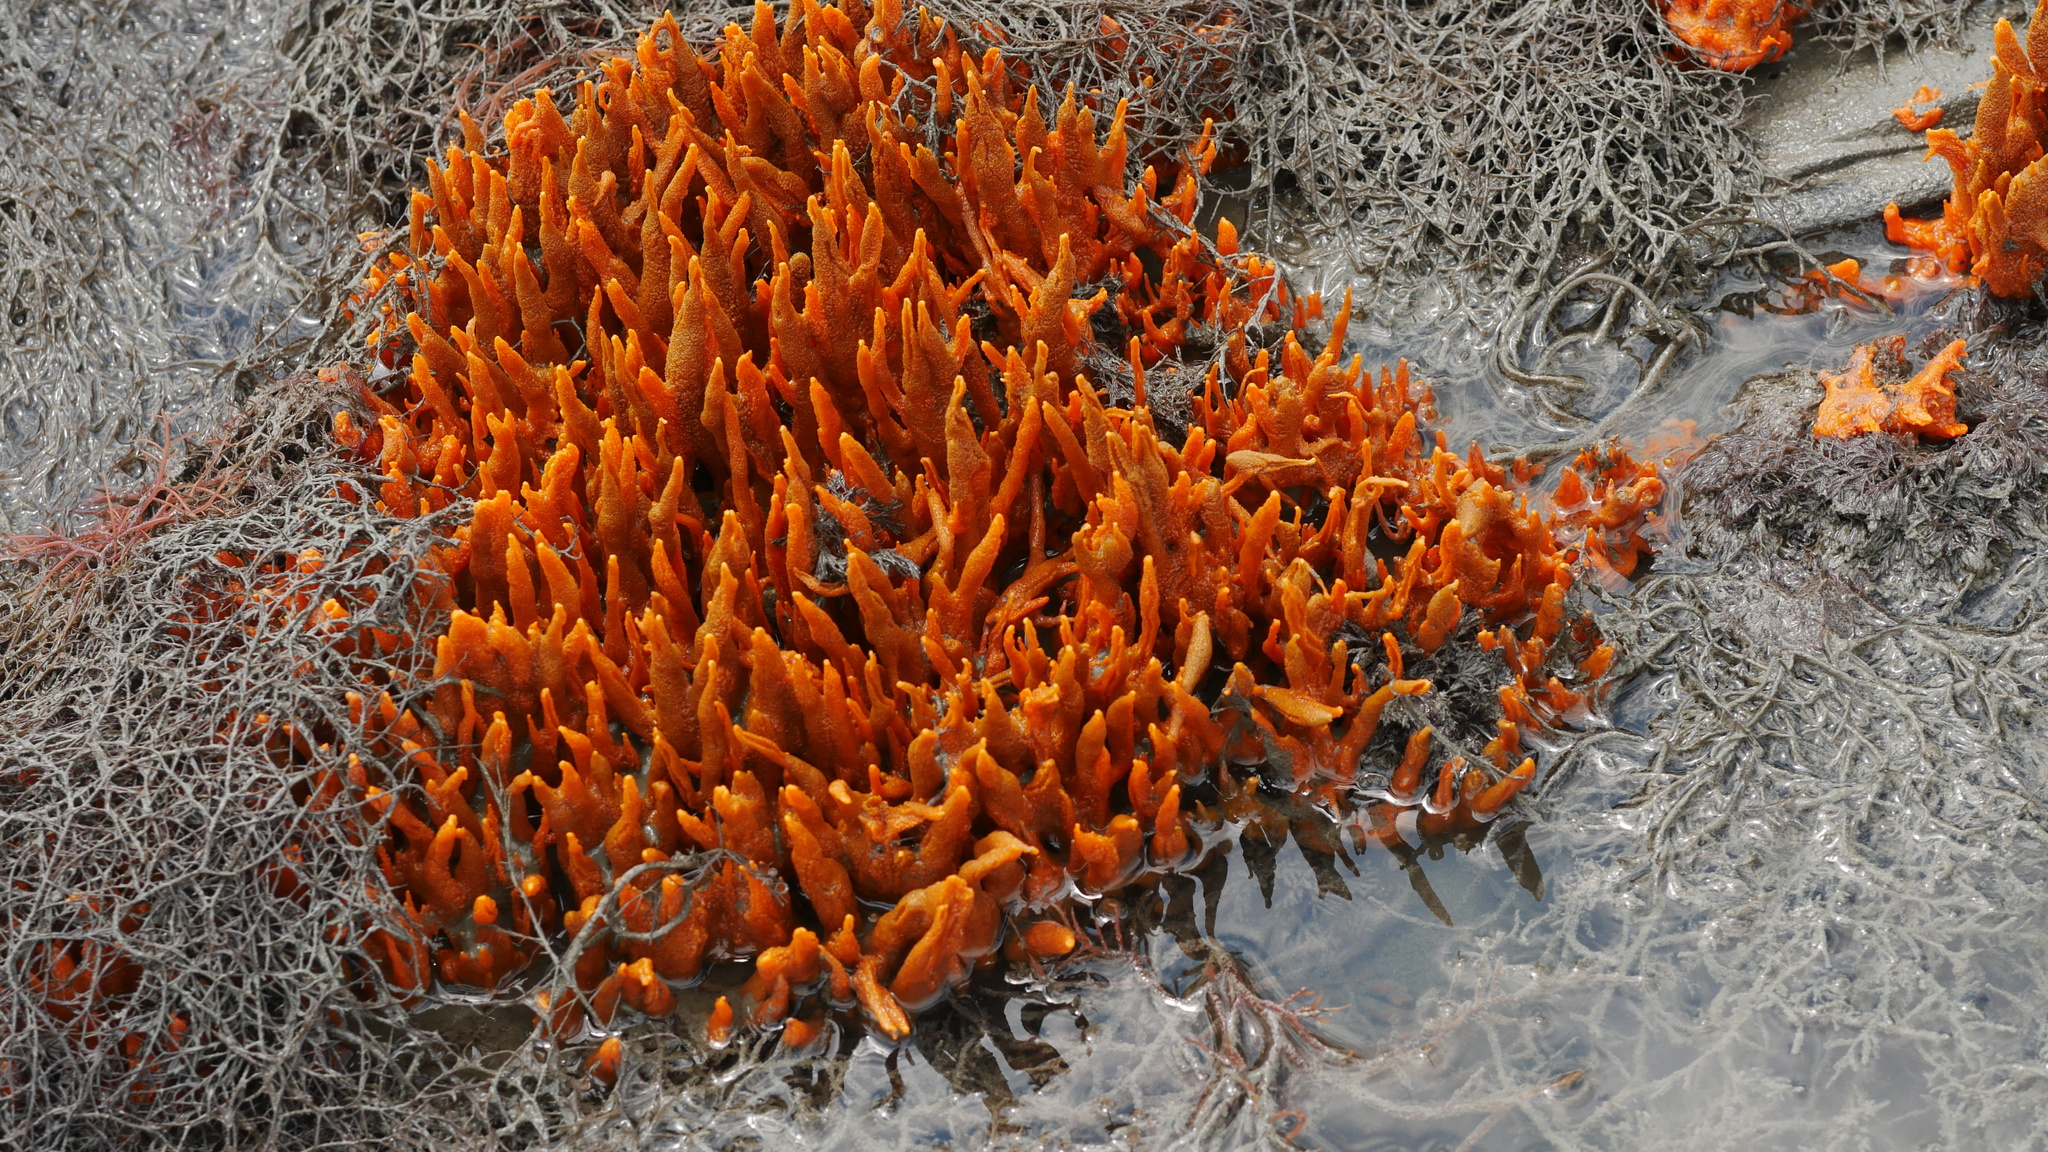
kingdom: Animalia
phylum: Porifera
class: Demospongiae
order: Suberitida
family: Halichondriidae
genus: Hymeniacidon
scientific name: Hymeniacidon heliophila
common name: Diurnal horny sponge
